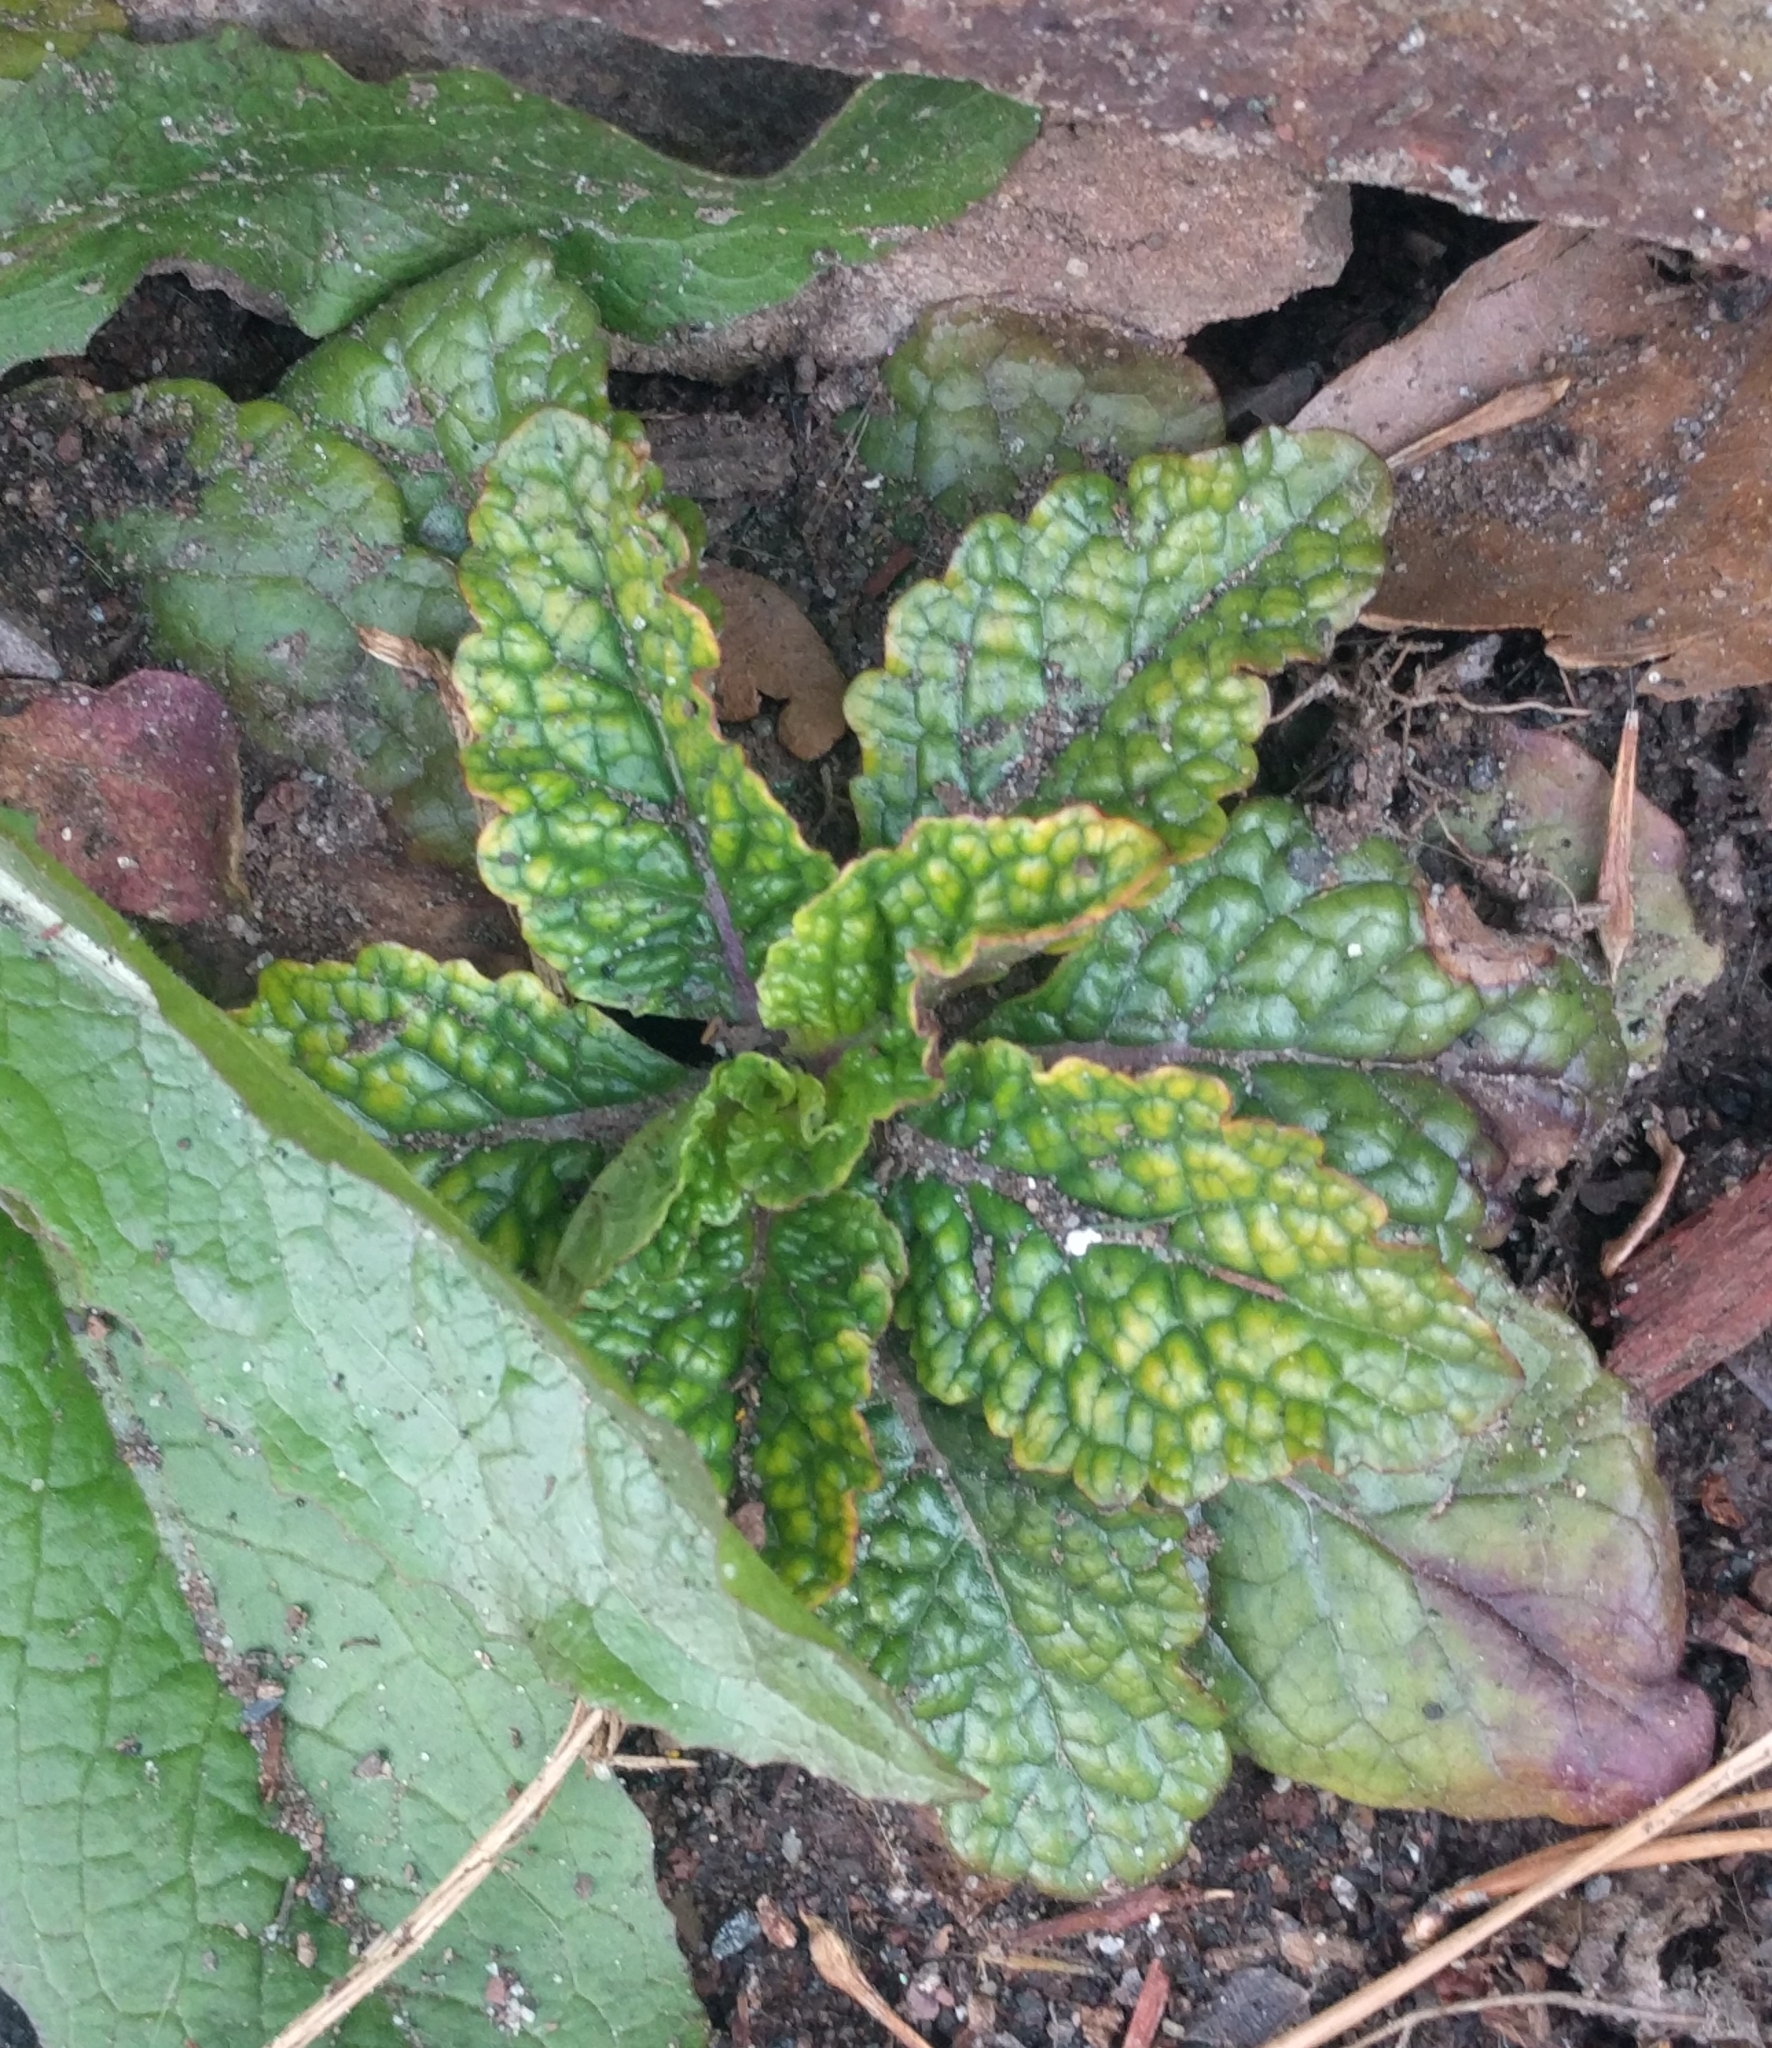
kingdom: Plantae
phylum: Tracheophyta
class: Magnoliopsida
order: Lamiales
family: Scrophulariaceae
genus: Verbascum
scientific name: Verbascum blattaria
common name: Moth mullein
